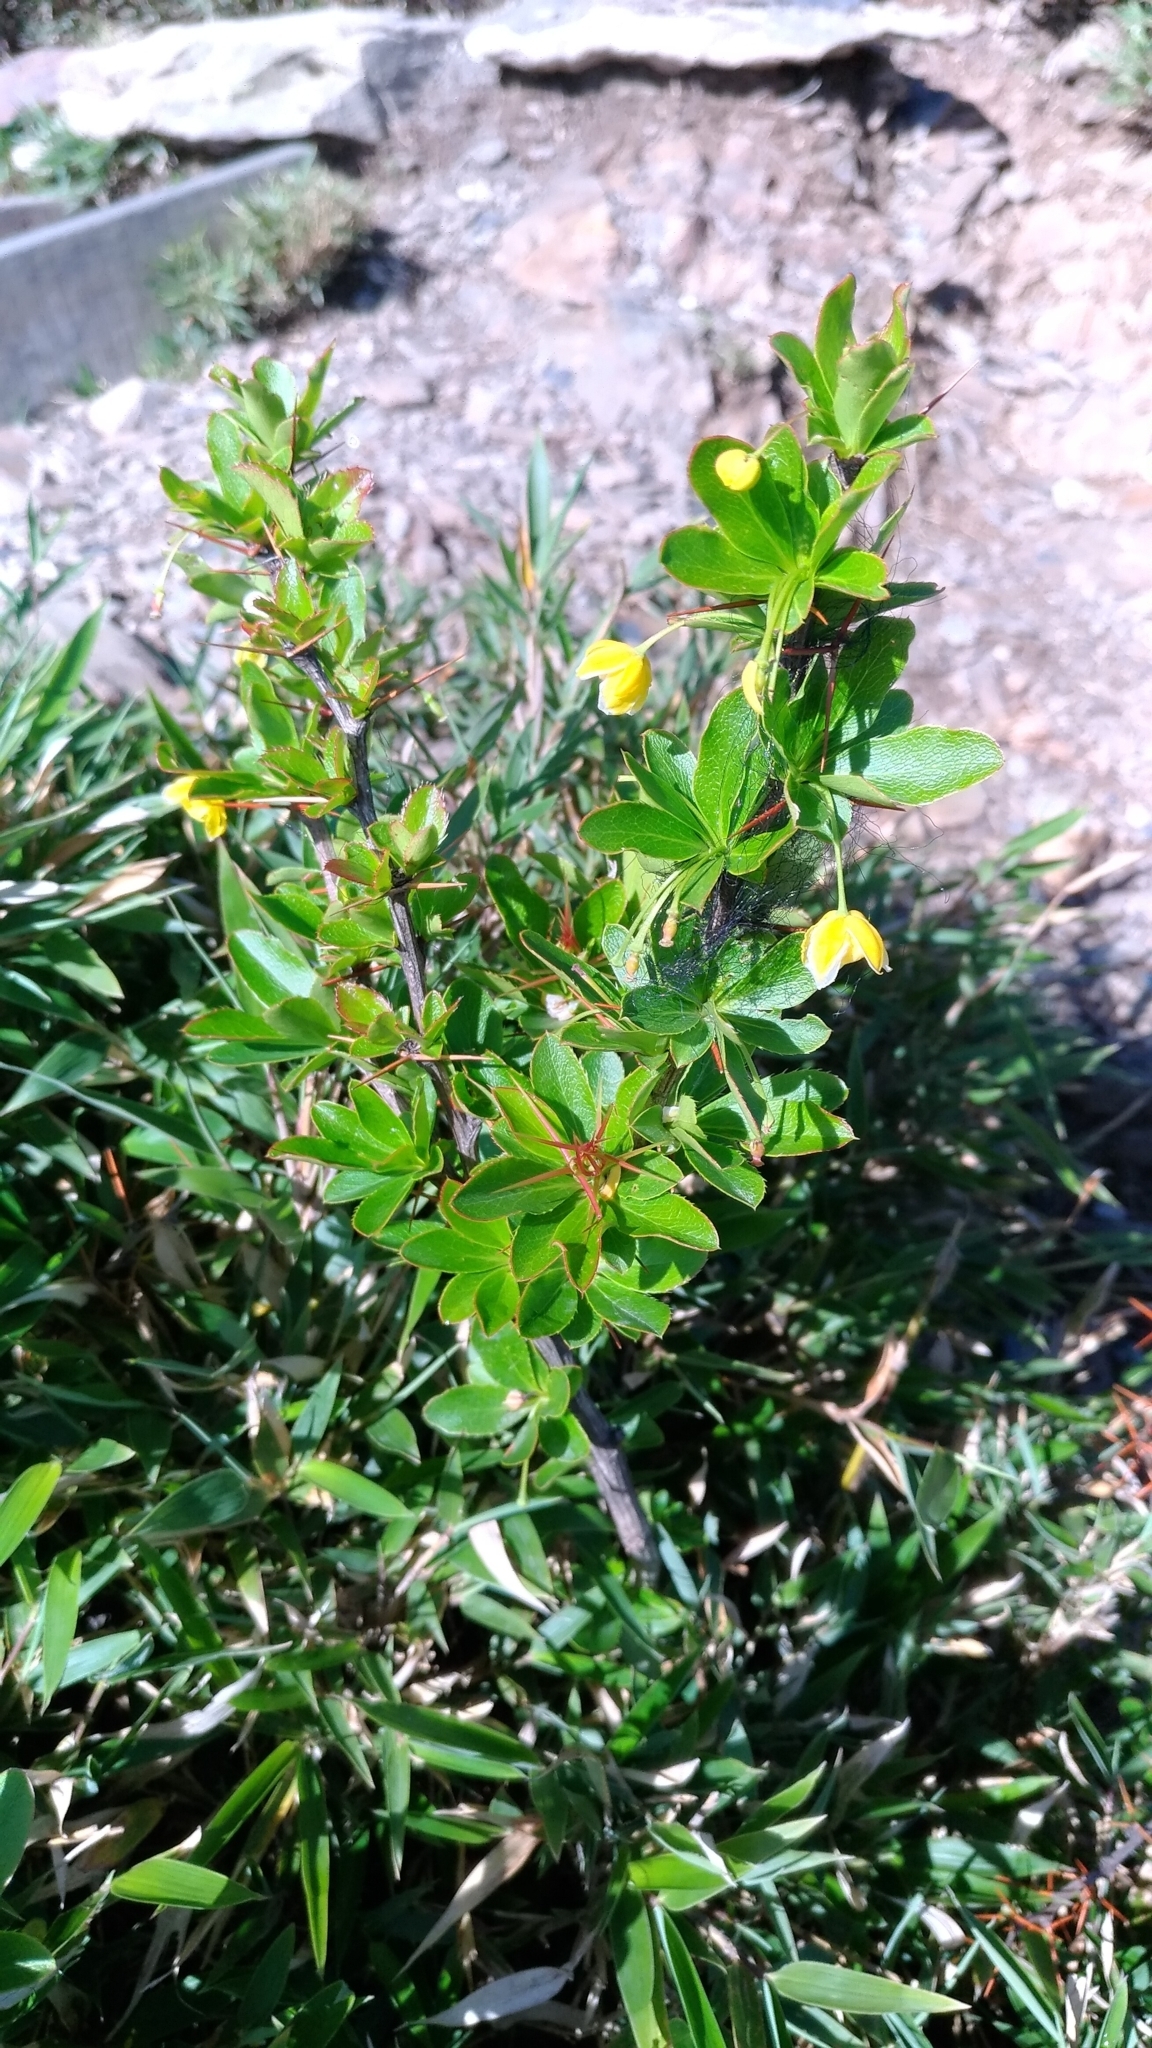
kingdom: Plantae
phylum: Tracheophyta
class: Magnoliopsida
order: Ranunculales
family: Berberidaceae
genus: Berberis
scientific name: Berberis morrisonensis
